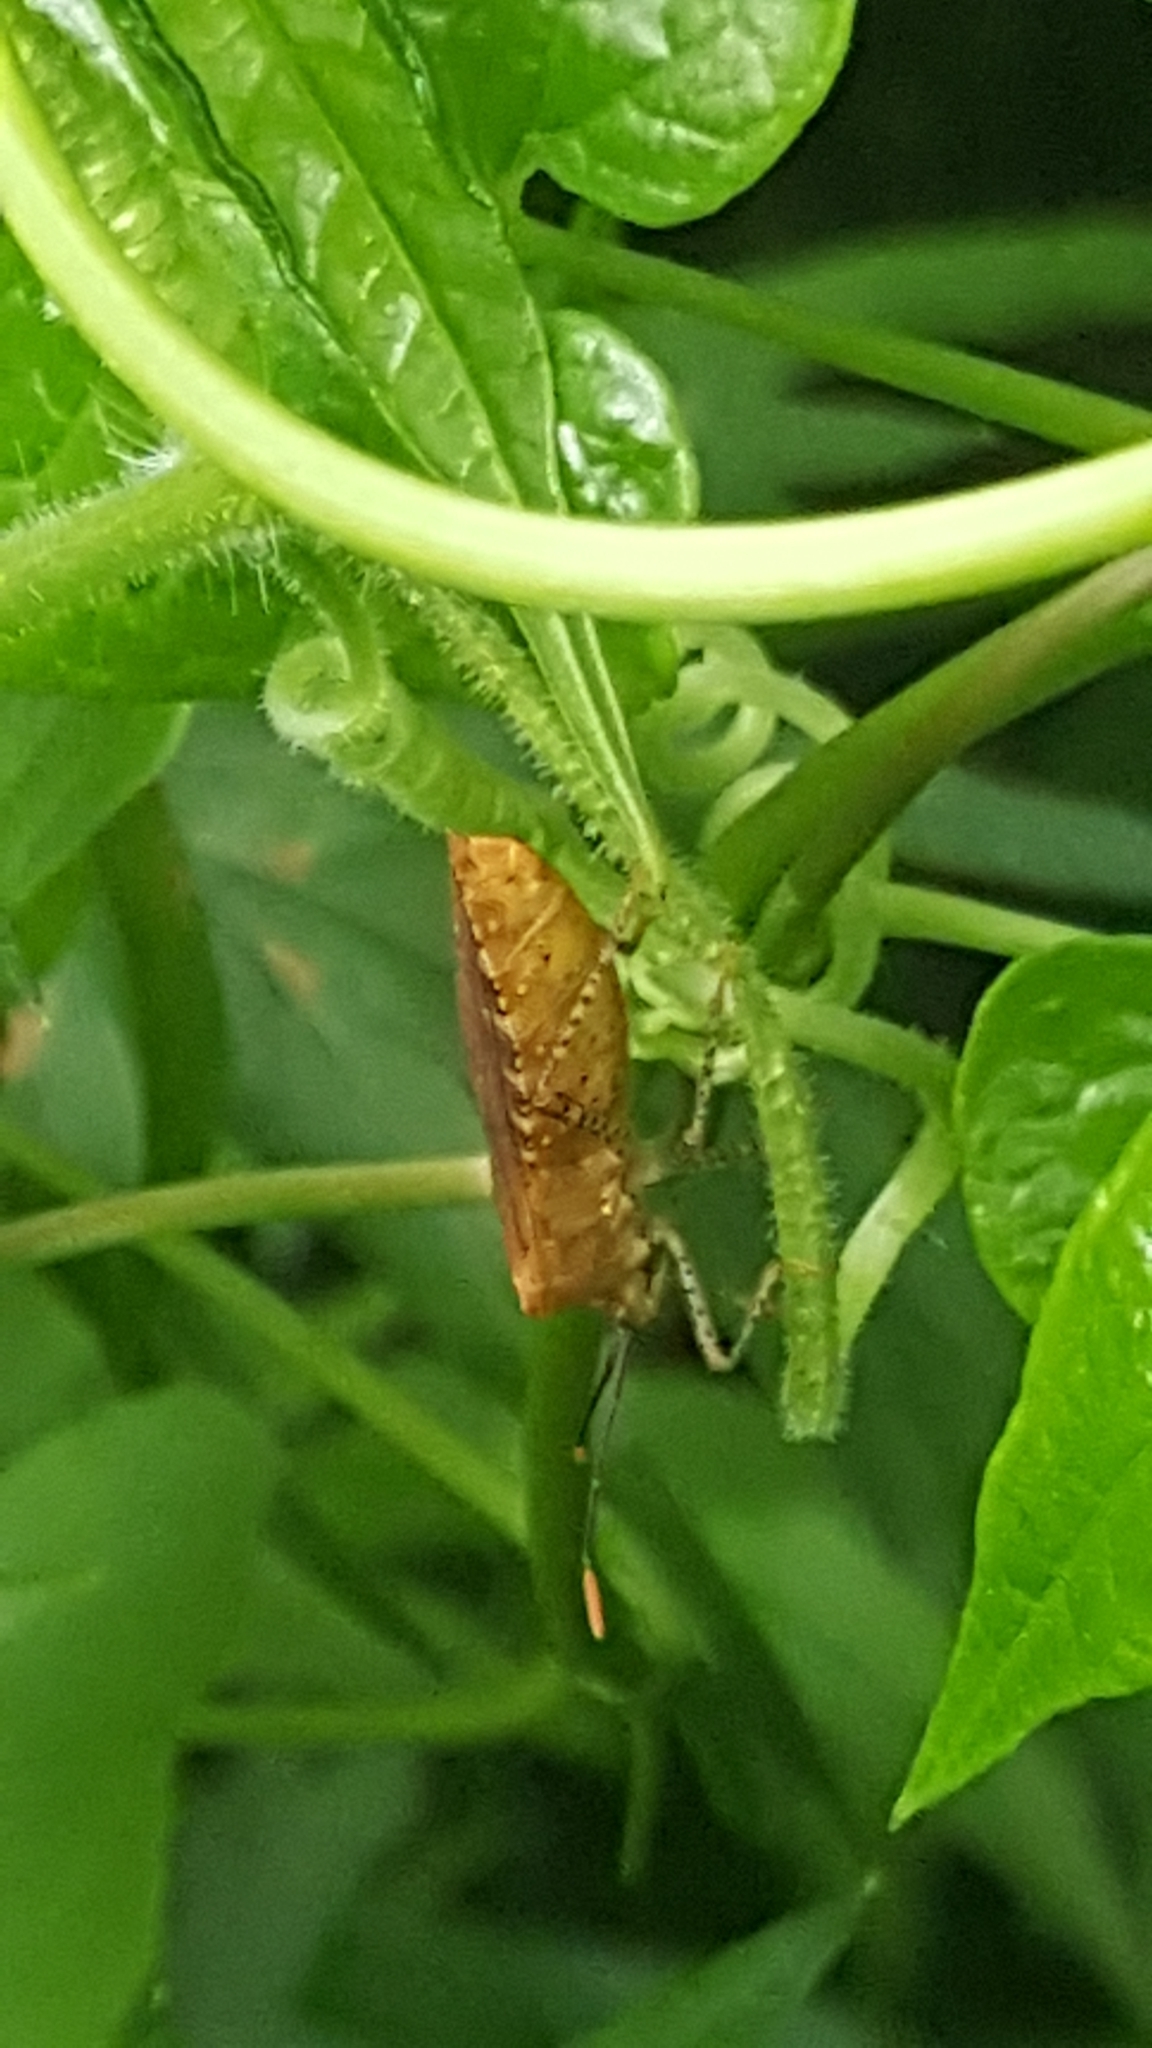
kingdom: Animalia
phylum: Arthropoda
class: Insecta
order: Hemiptera
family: Coreidae
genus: Anasa
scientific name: Anasa repetita
